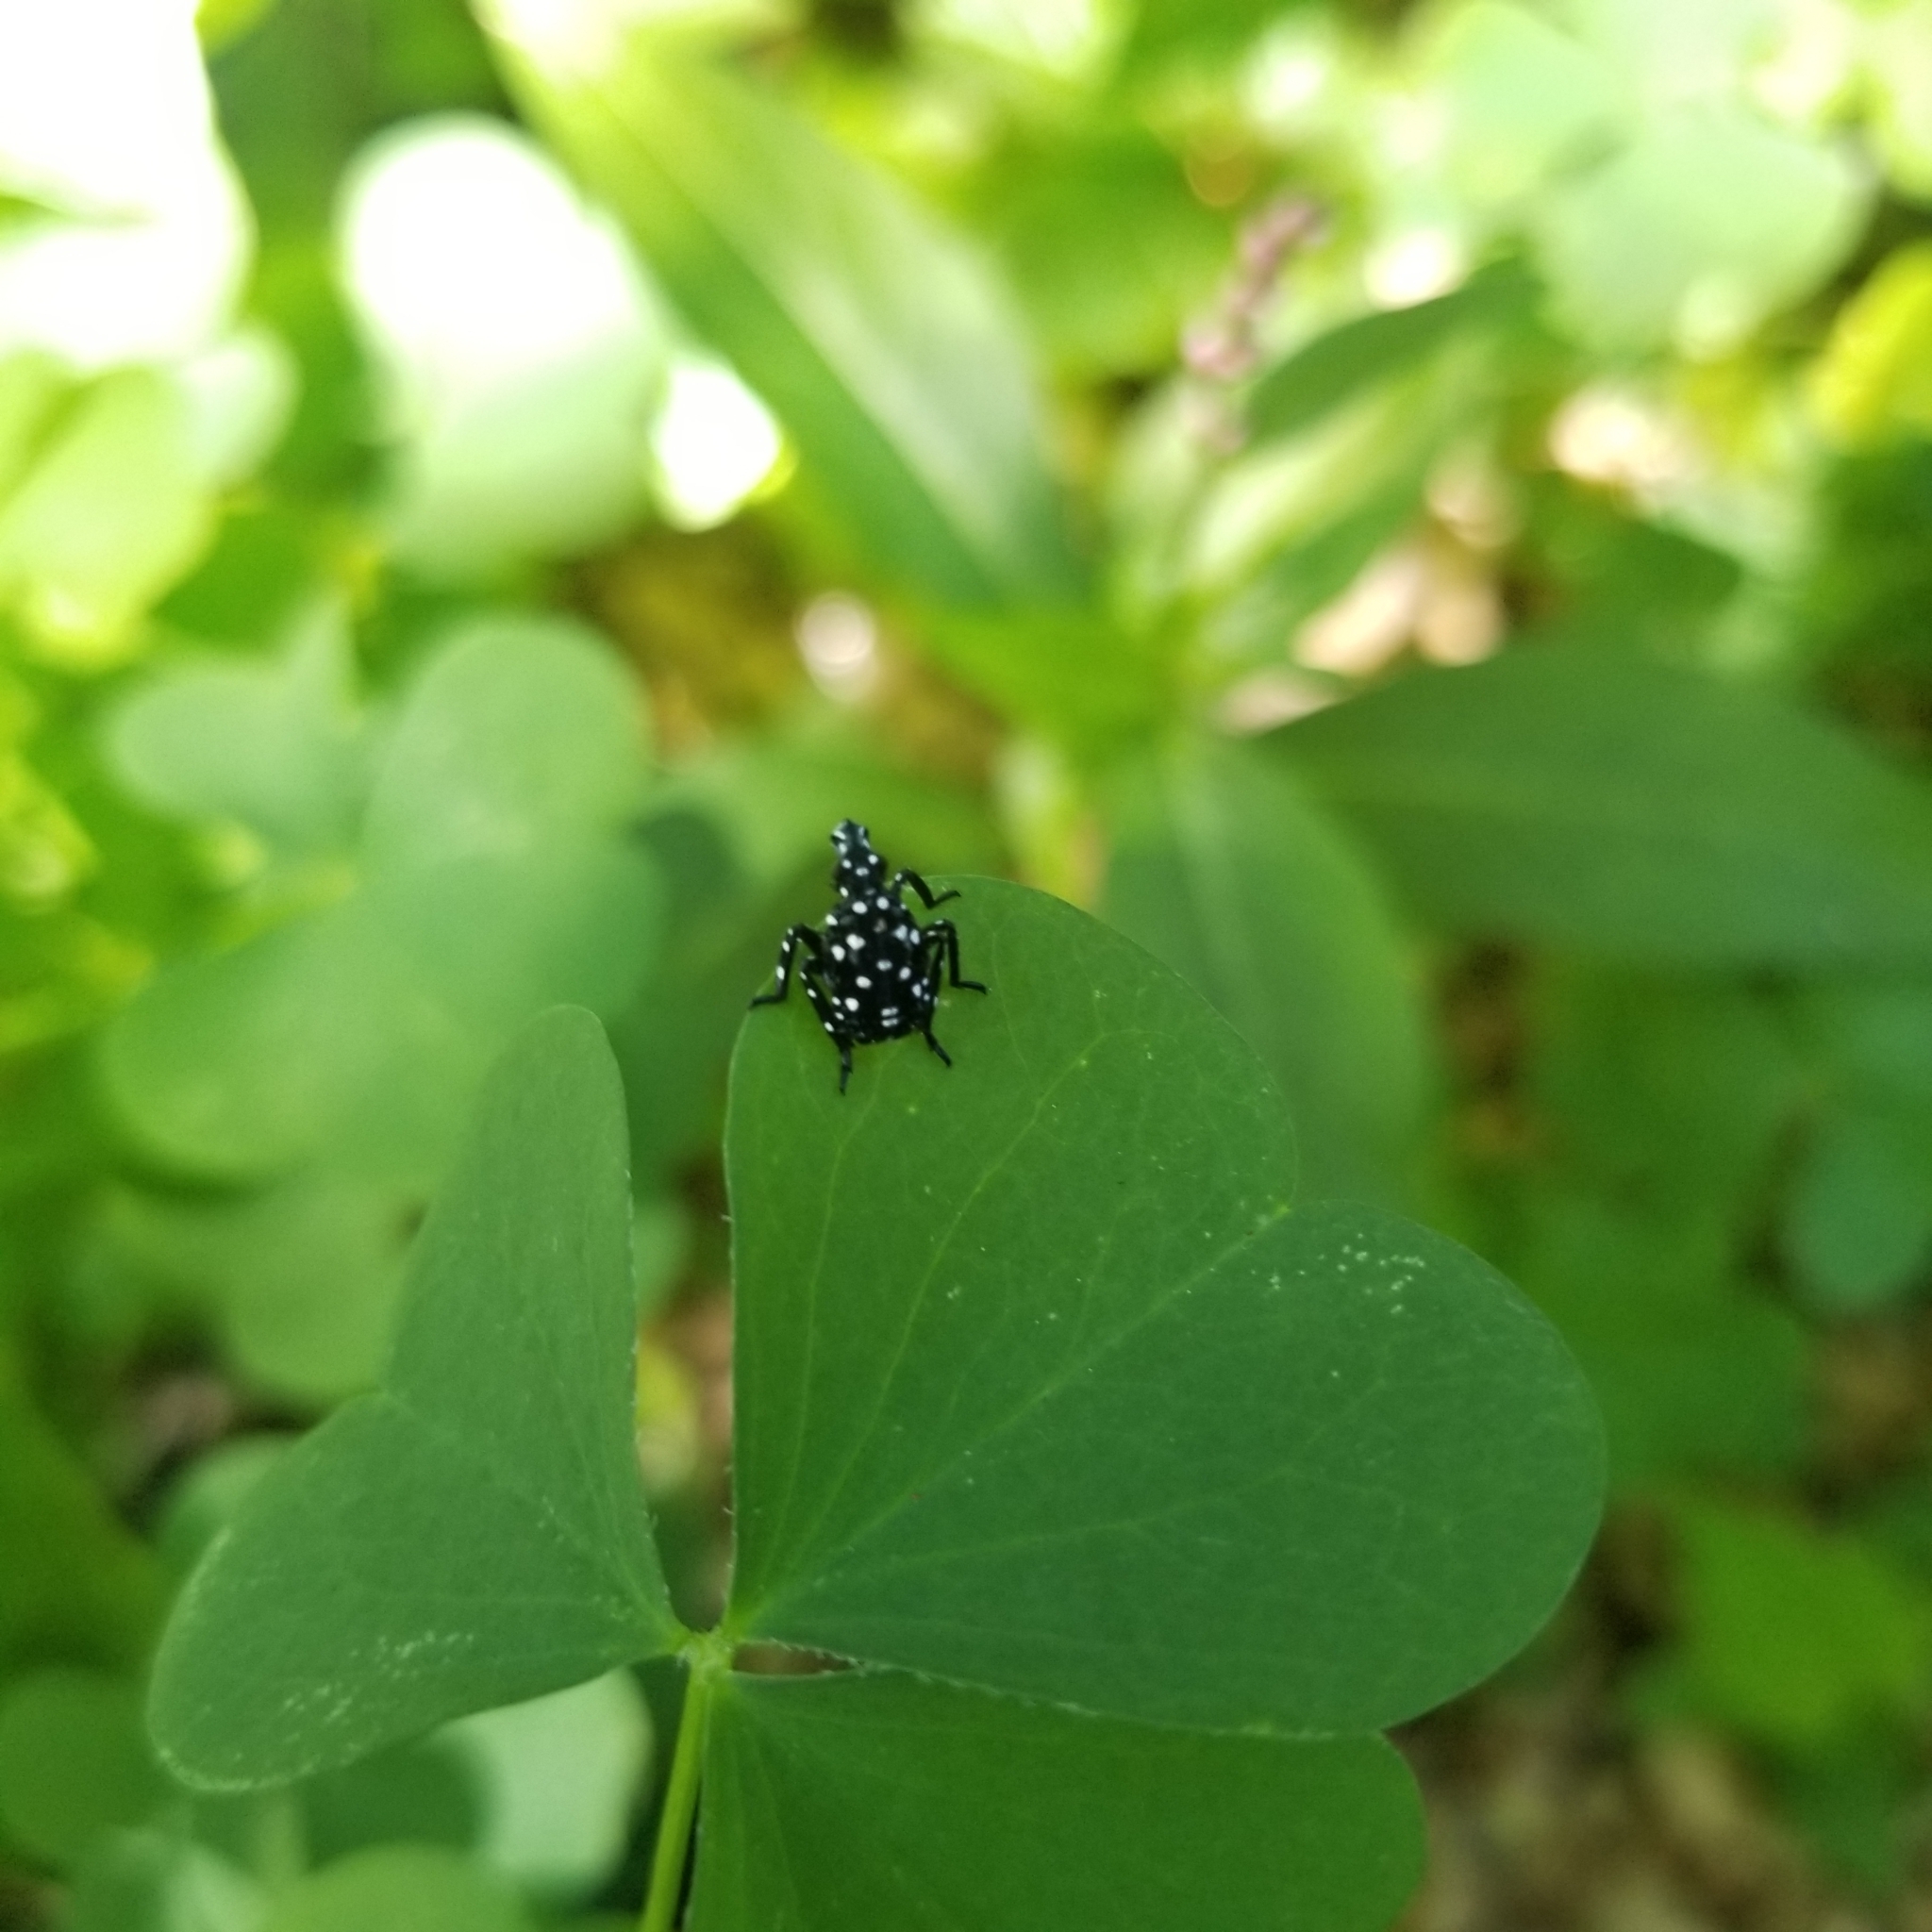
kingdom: Animalia
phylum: Arthropoda
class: Insecta
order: Hemiptera
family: Fulgoridae
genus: Lycorma
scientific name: Lycorma delicatula
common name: Spotted lanternfly
